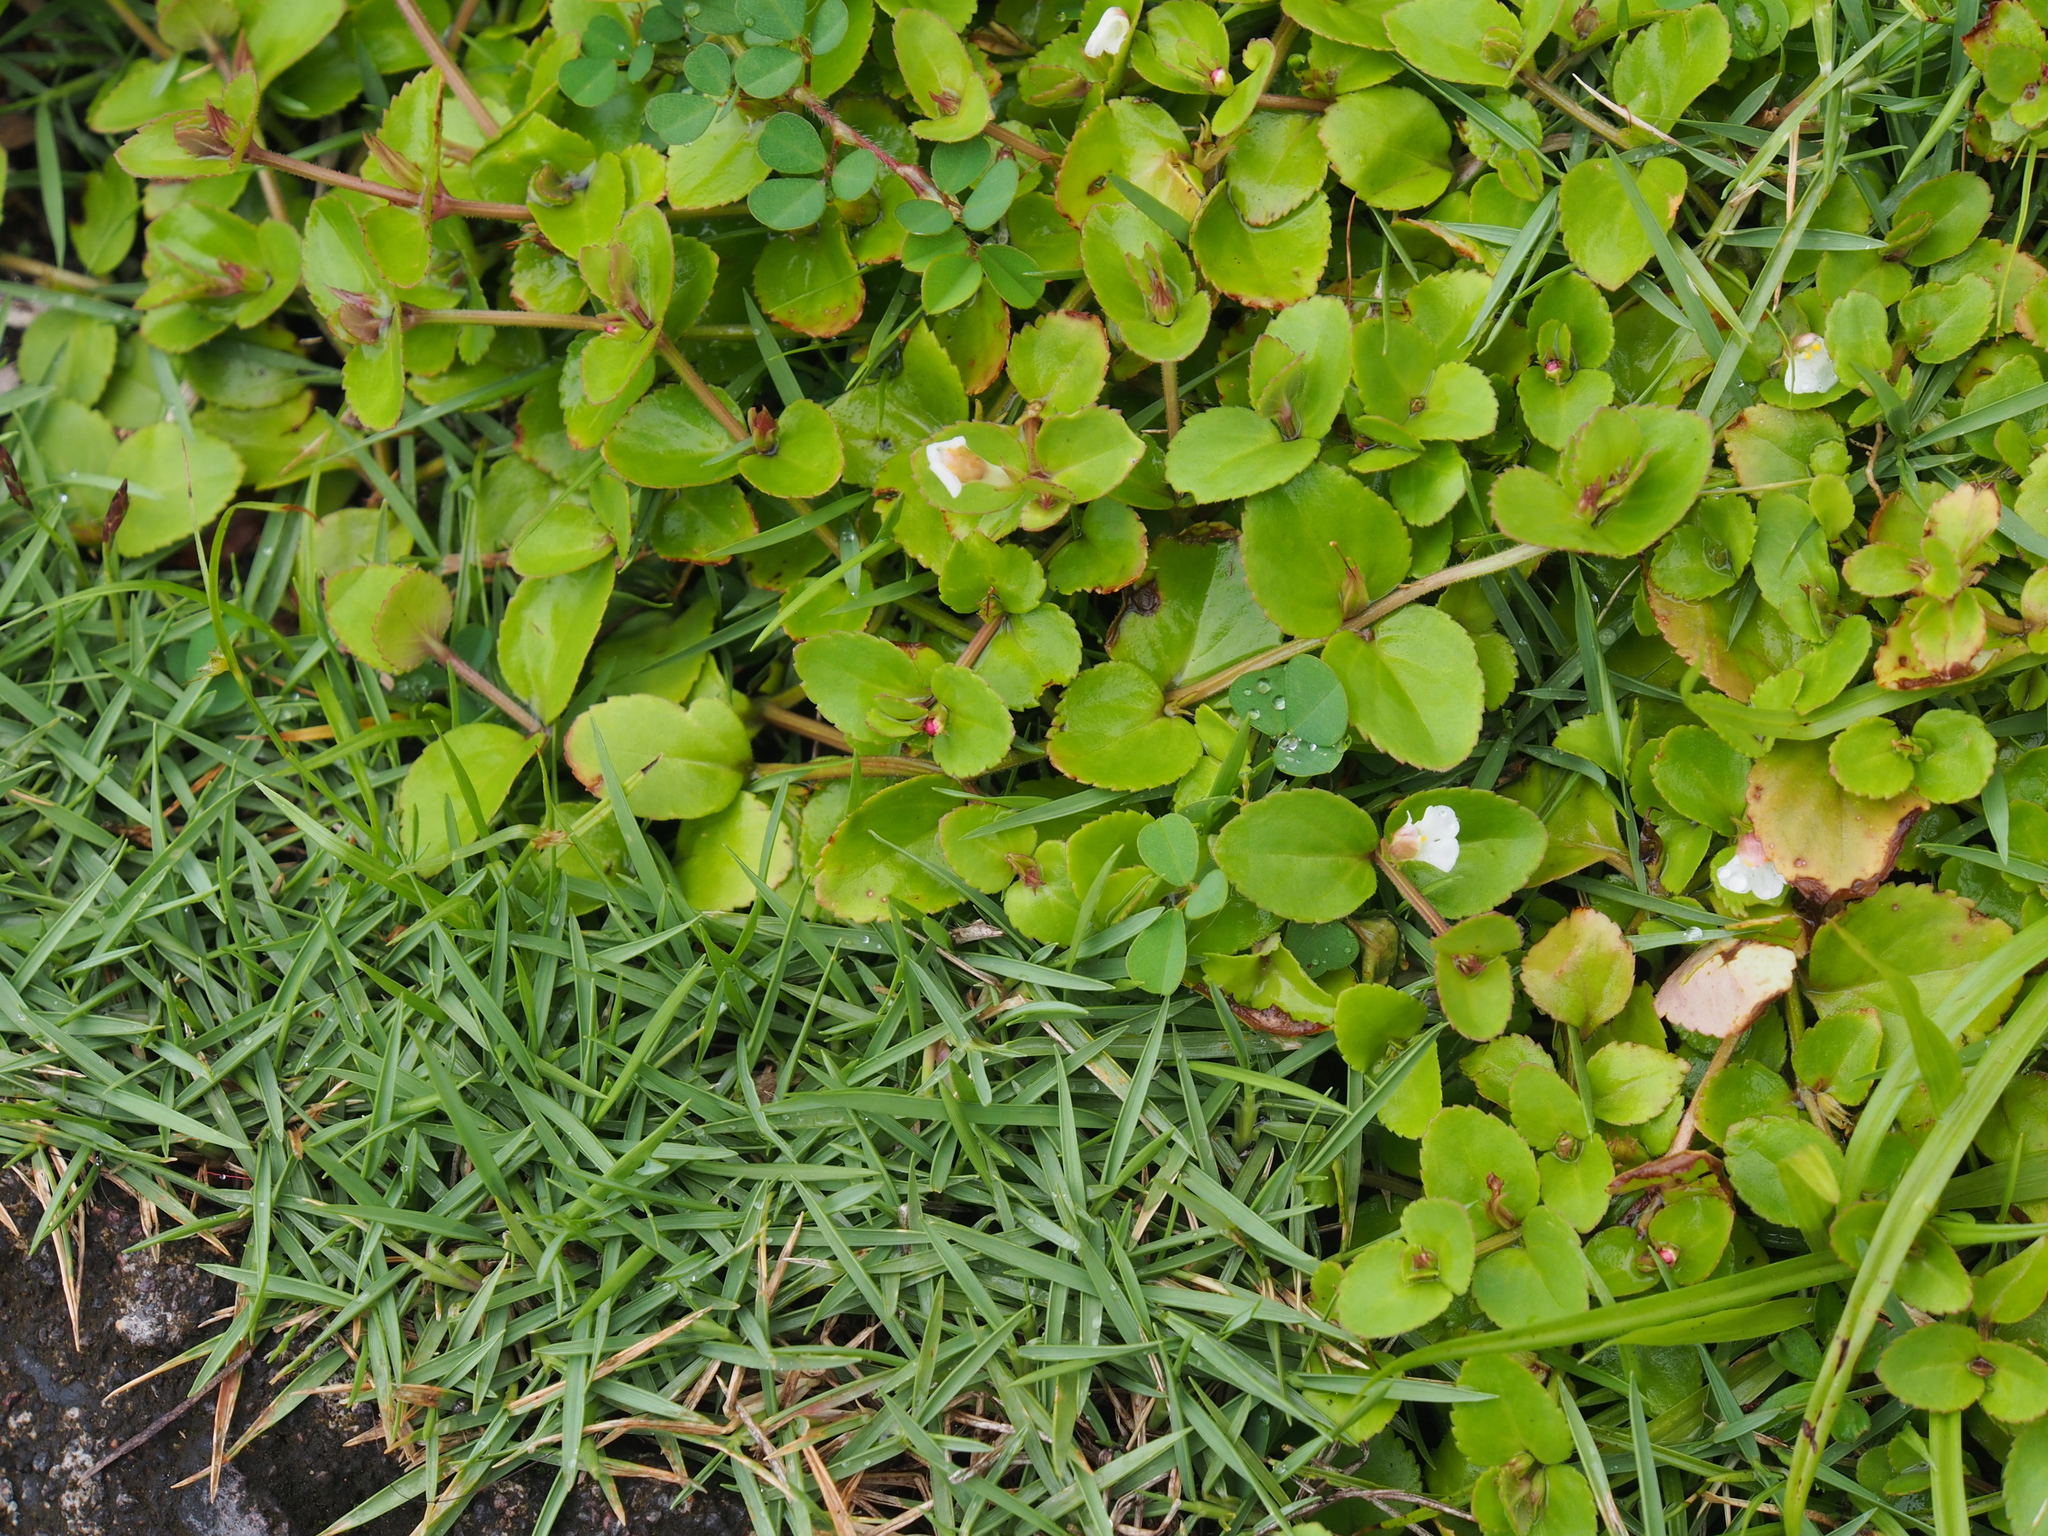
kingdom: Plantae
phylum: Tracheophyta
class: Magnoliopsida
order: Lamiales
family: Linderniaceae
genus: Vandellia
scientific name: Vandellia diffusa
